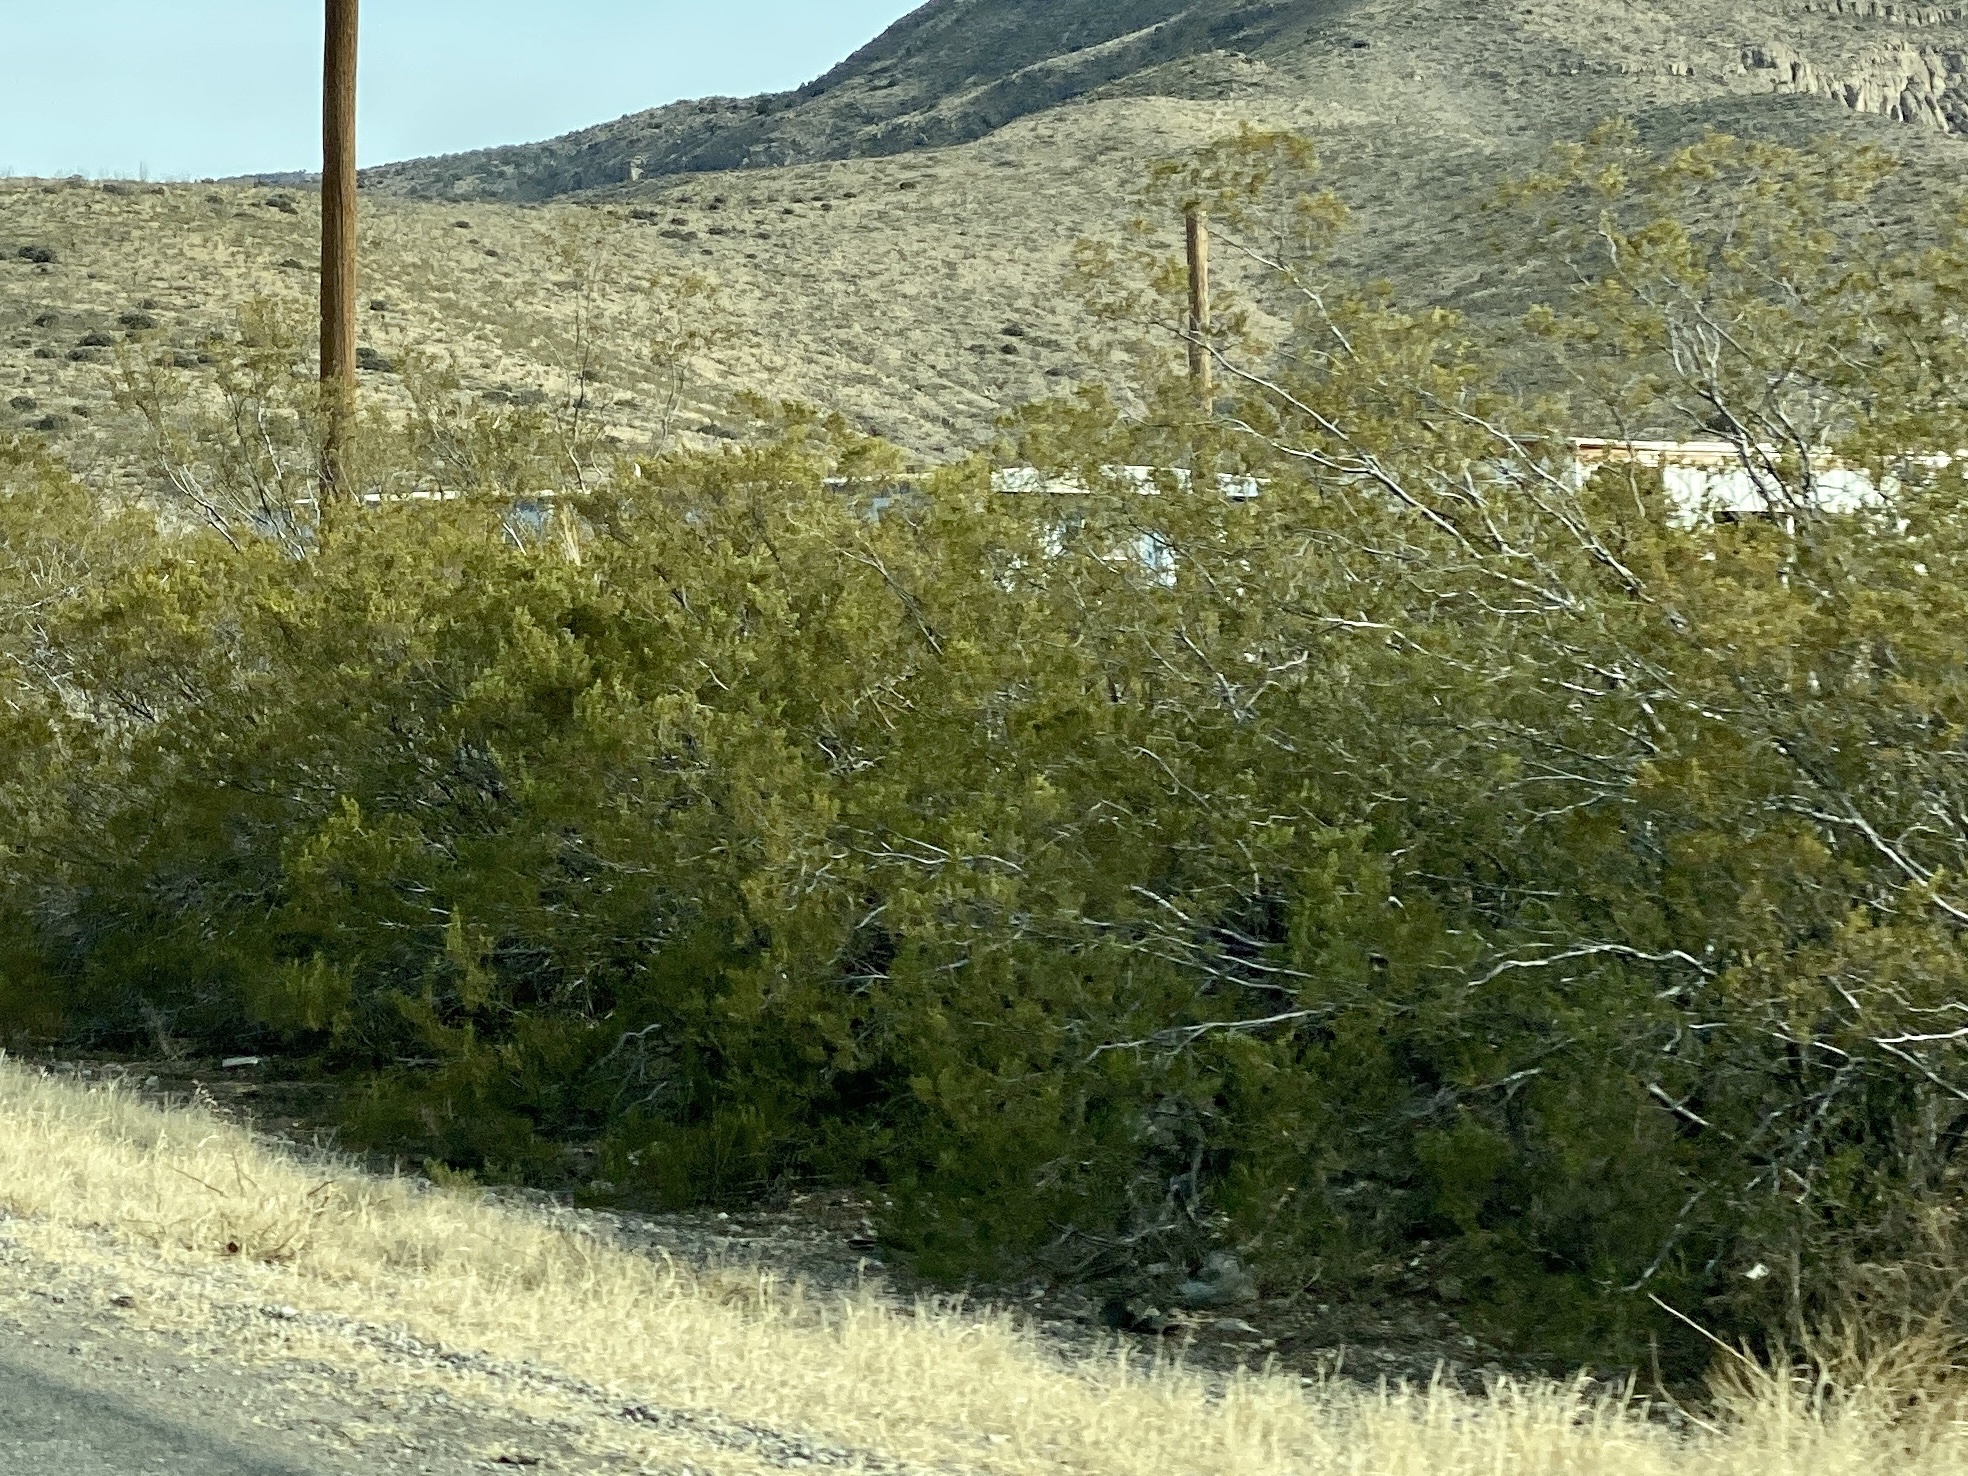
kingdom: Plantae
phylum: Tracheophyta
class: Magnoliopsida
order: Zygophyllales
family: Zygophyllaceae
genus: Larrea
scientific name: Larrea tridentata
